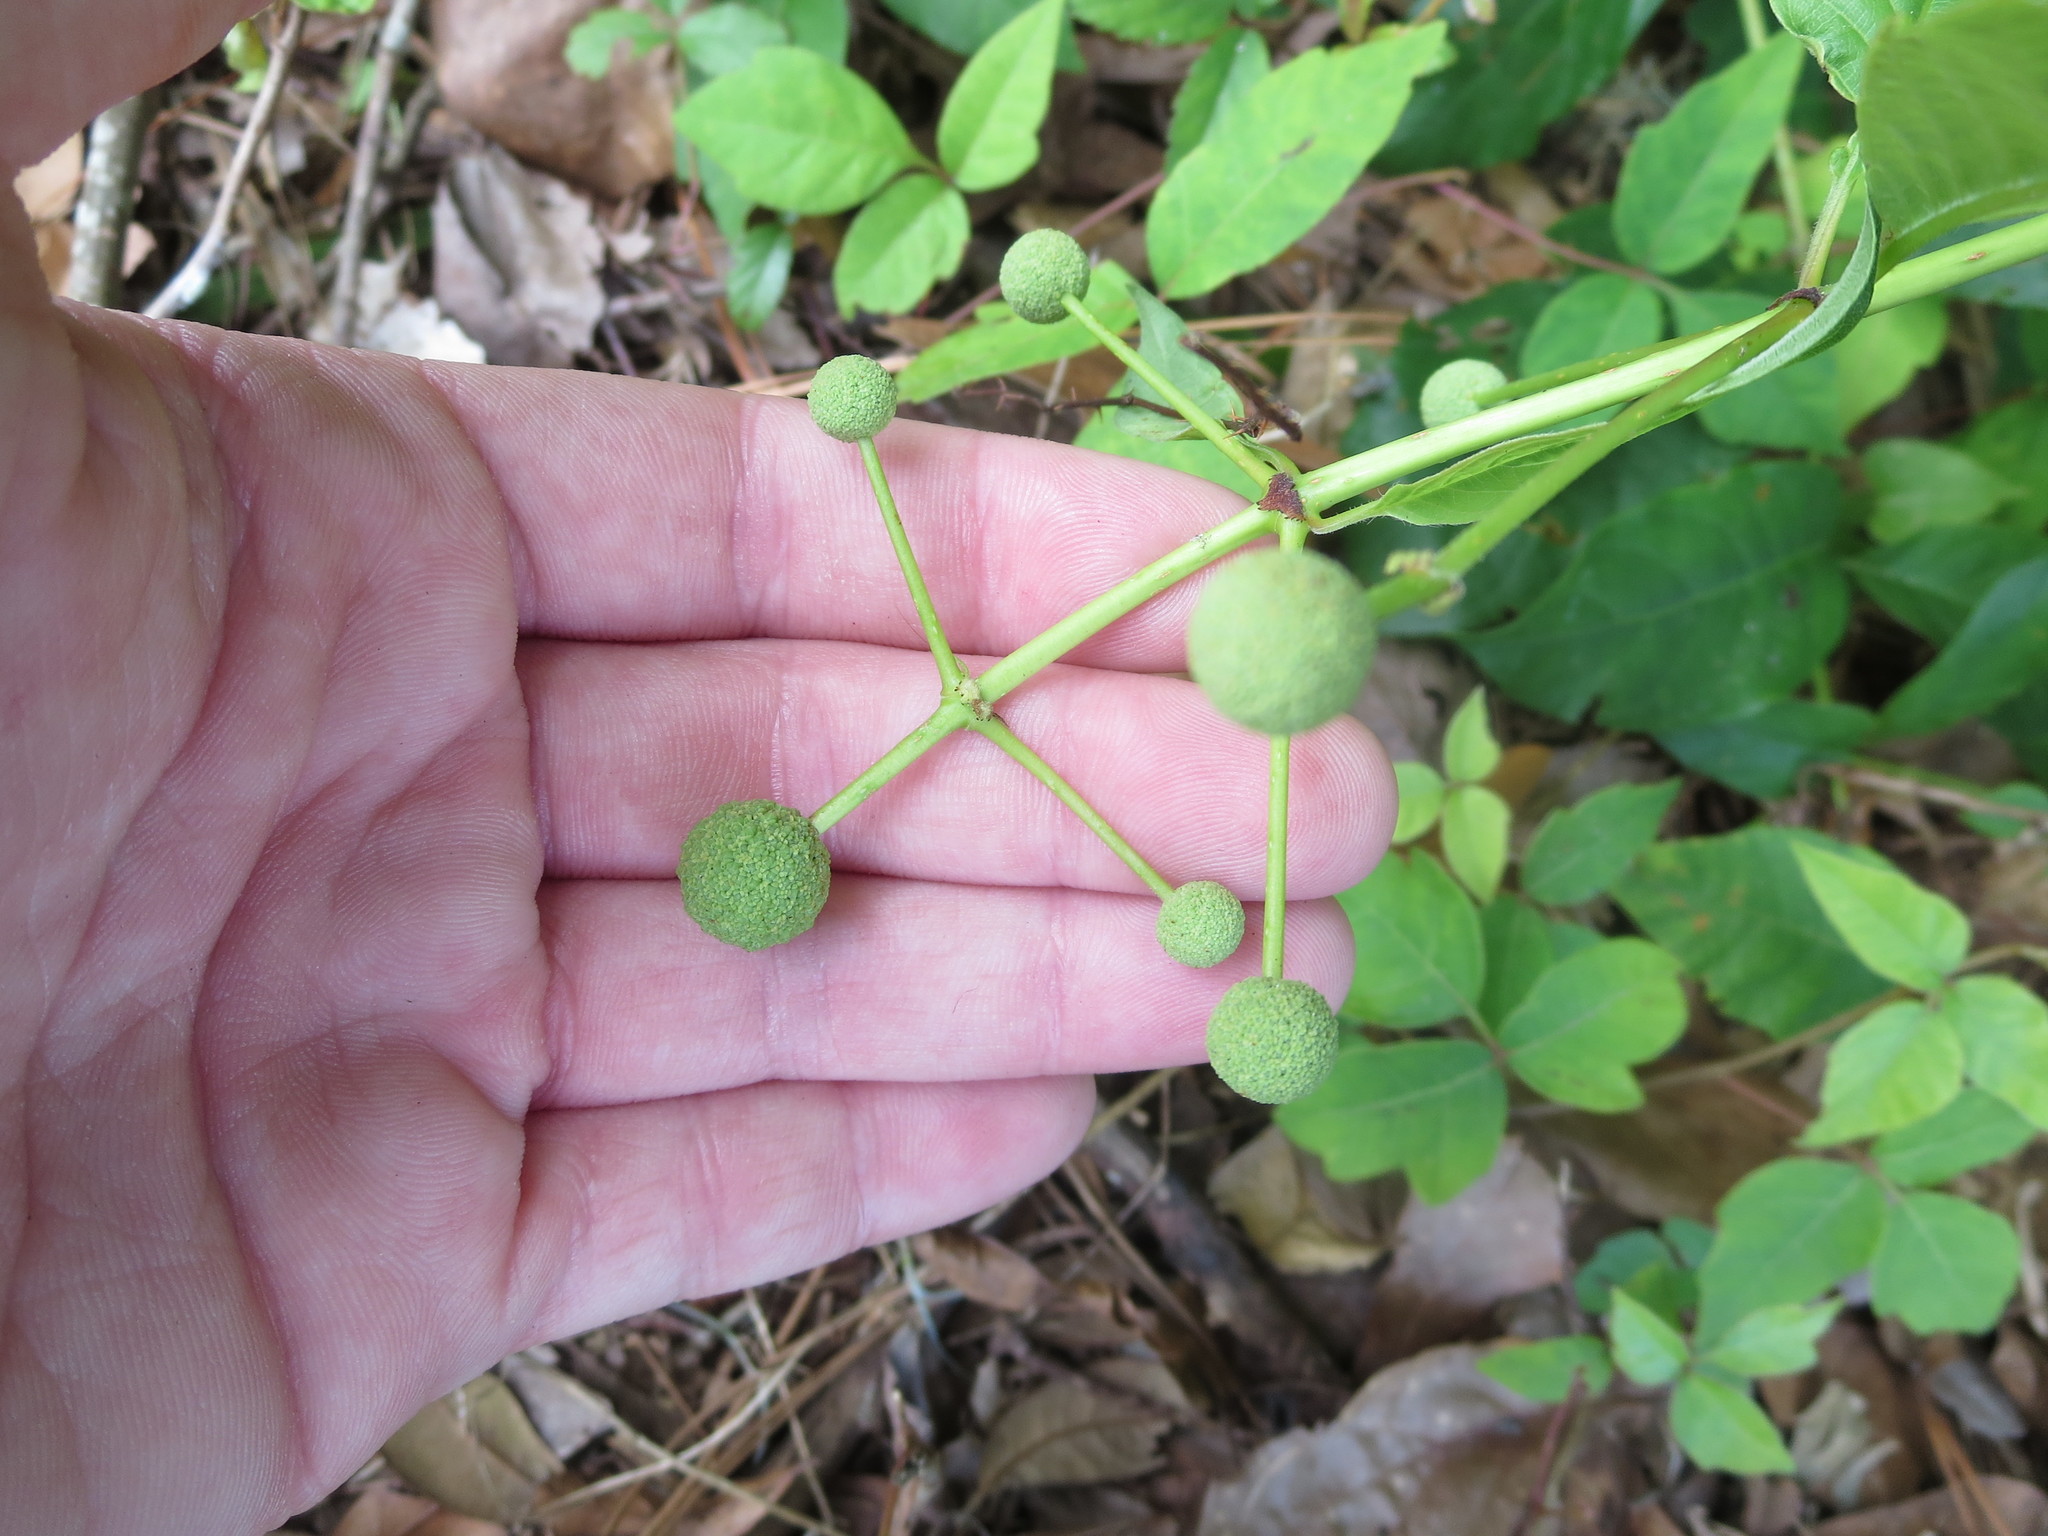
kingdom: Plantae
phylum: Tracheophyta
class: Magnoliopsida
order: Gentianales
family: Rubiaceae
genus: Cephalanthus
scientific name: Cephalanthus occidentalis
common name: Button-willow
